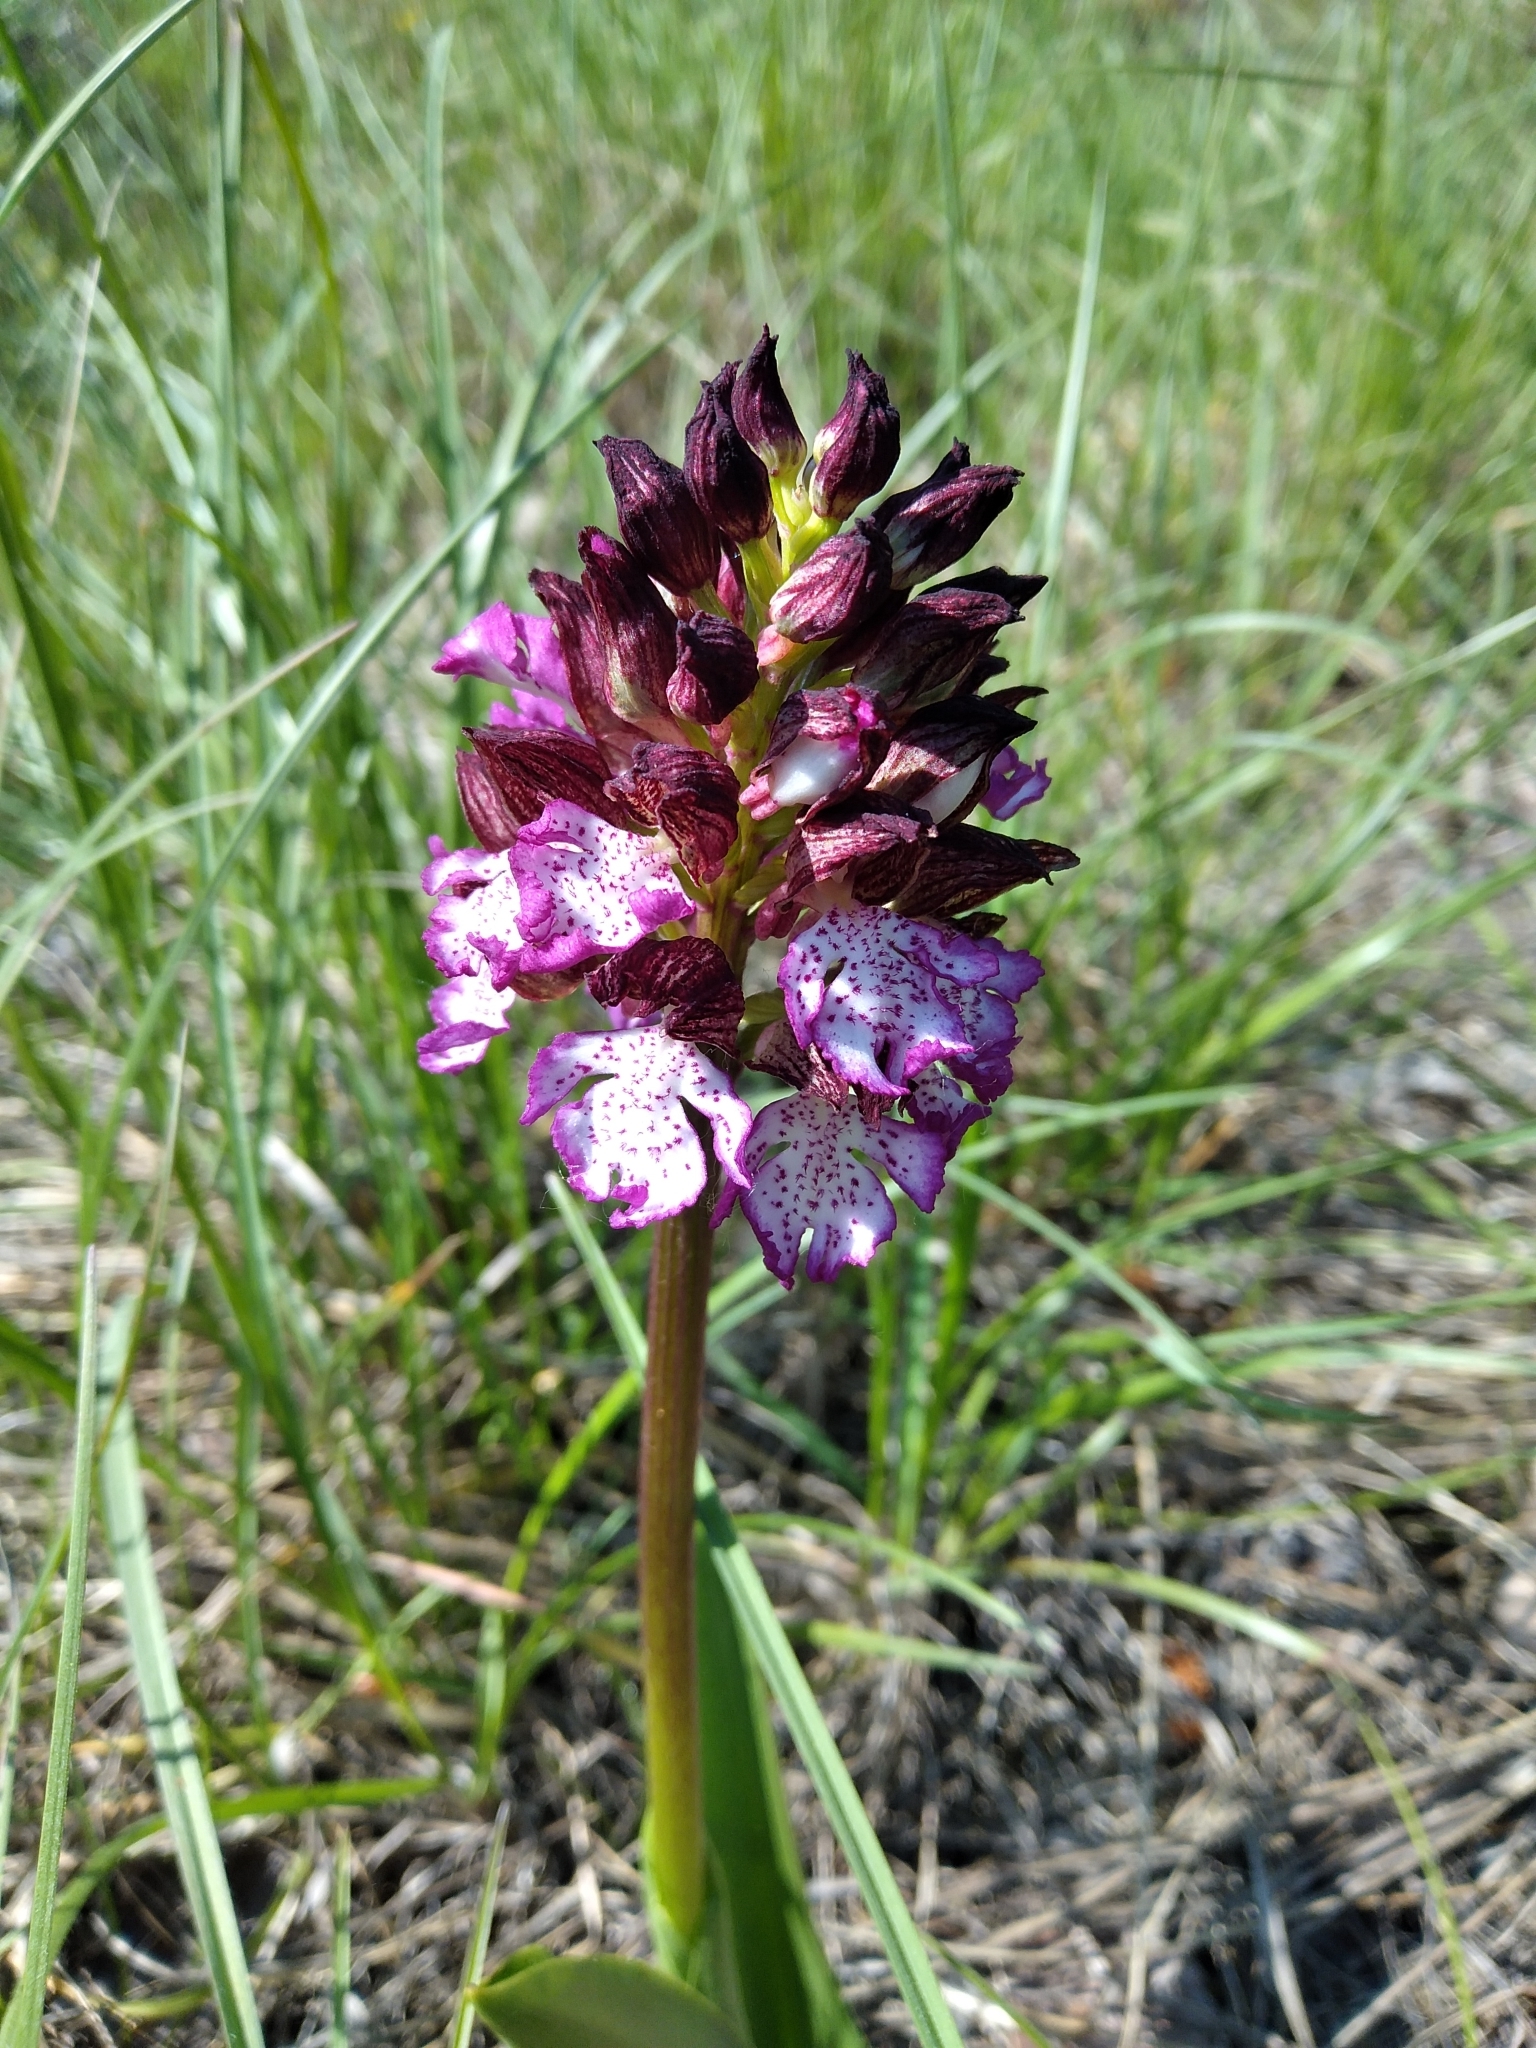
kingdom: Plantae
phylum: Tracheophyta
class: Liliopsida
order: Asparagales
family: Orchidaceae
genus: Orchis
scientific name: Orchis purpurea
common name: Lady orchid
